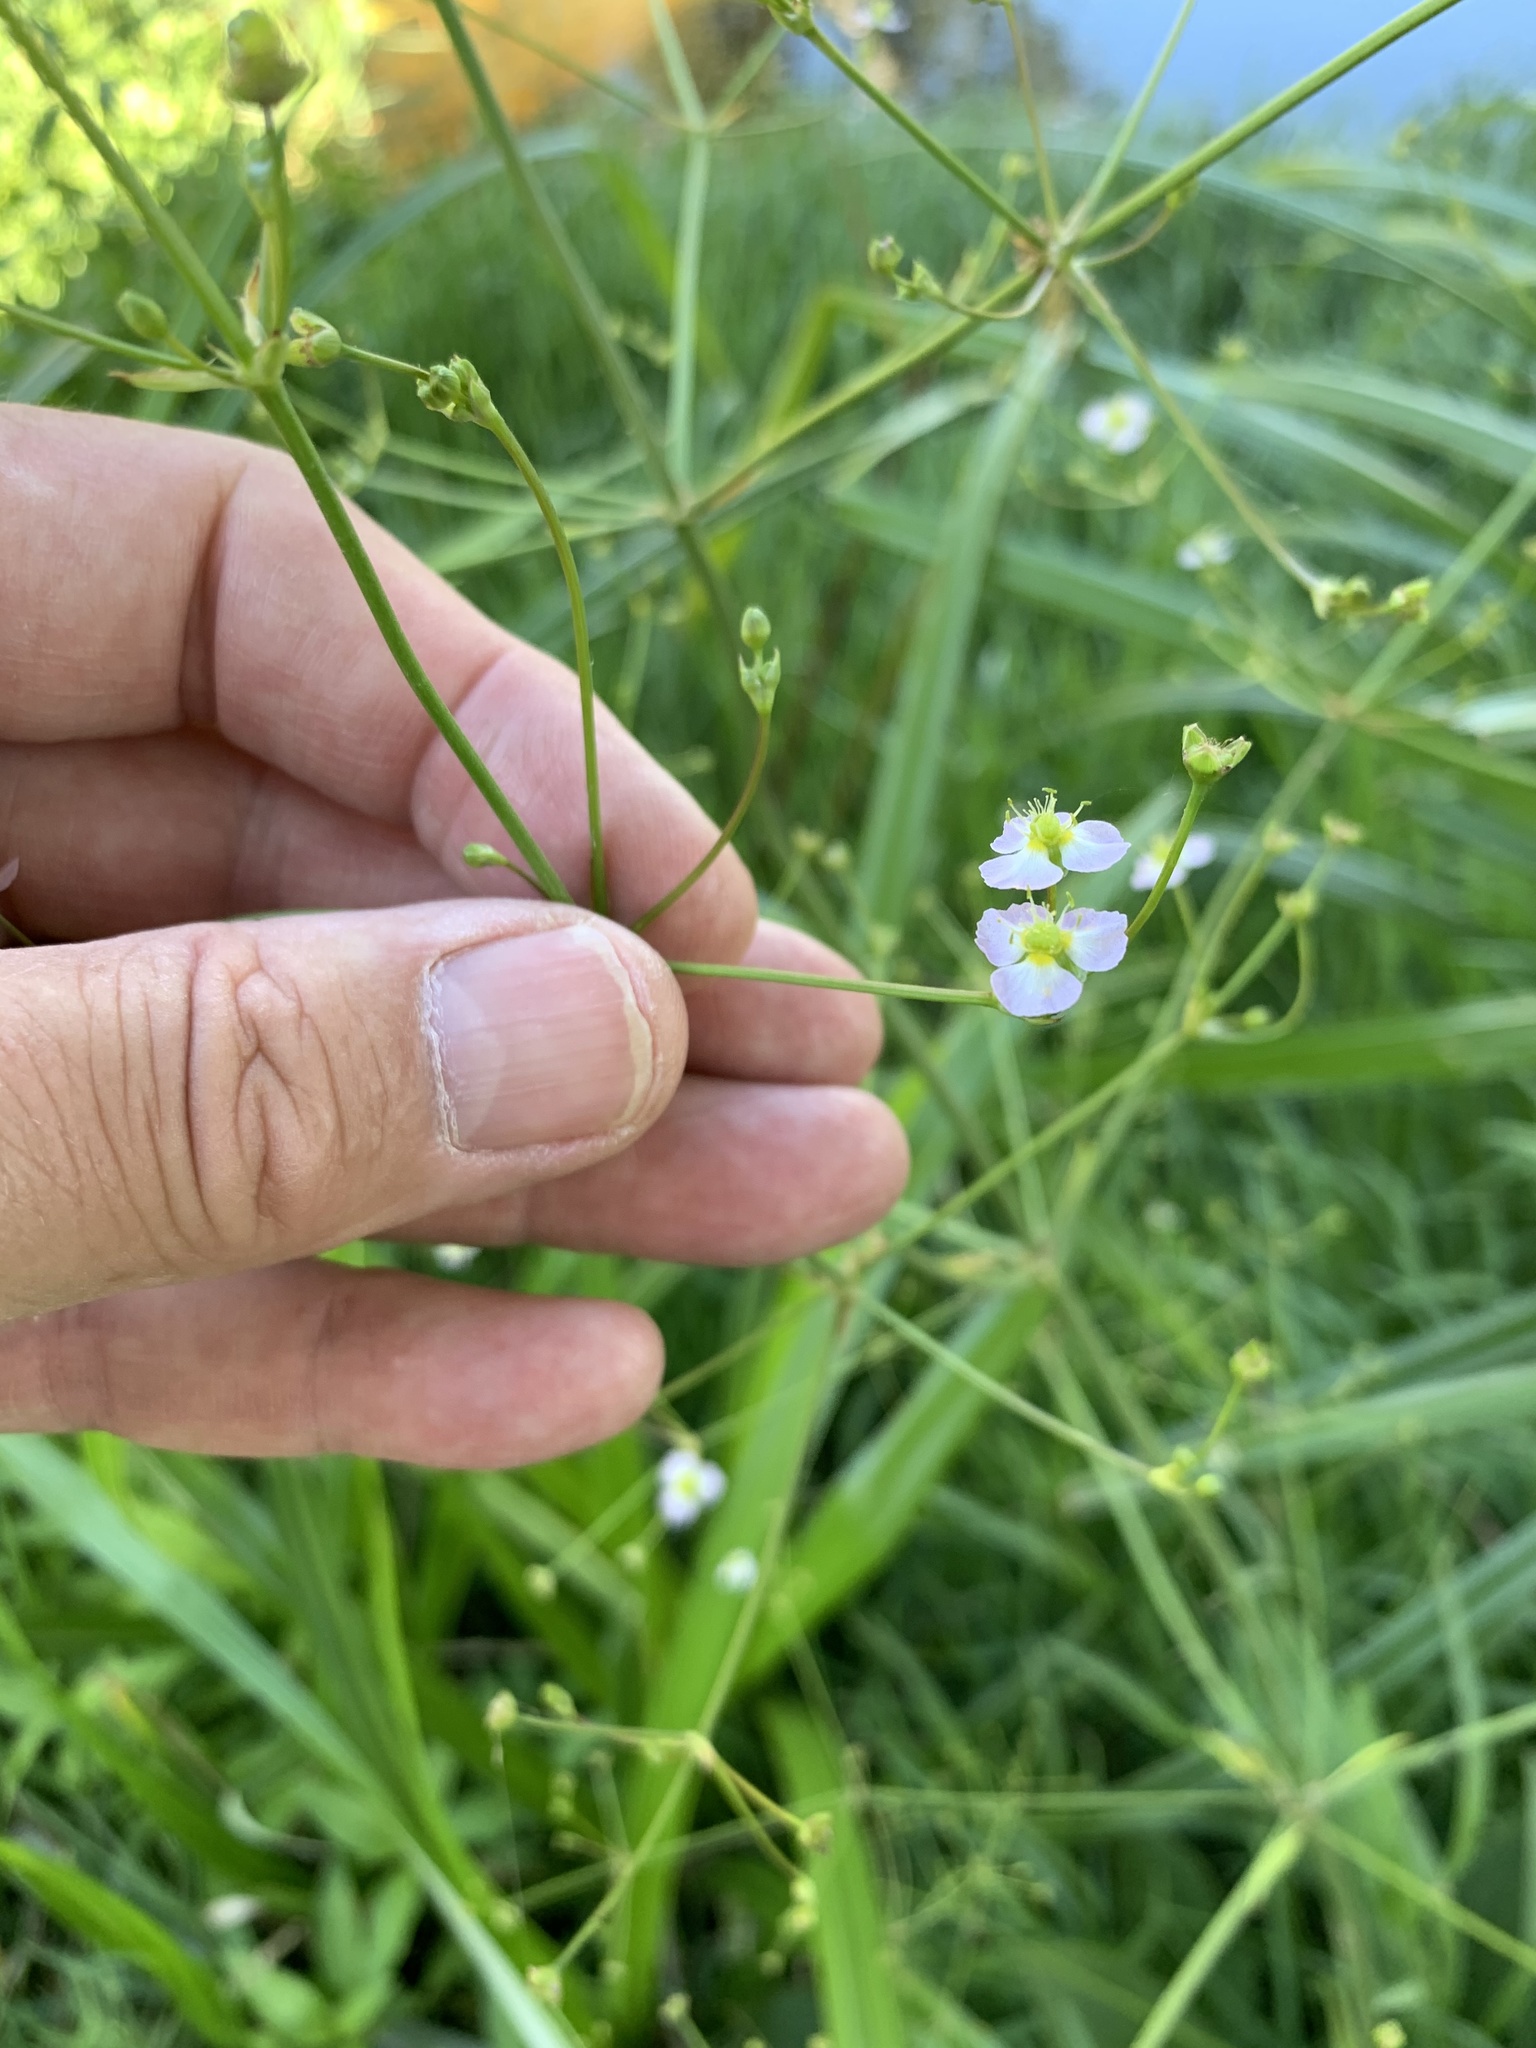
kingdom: Plantae
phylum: Tracheophyta
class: Liliopsida
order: Alismatales
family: Alismataceae
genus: Alisma
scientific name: Alisma plantago-aquatica
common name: Water-plantain
